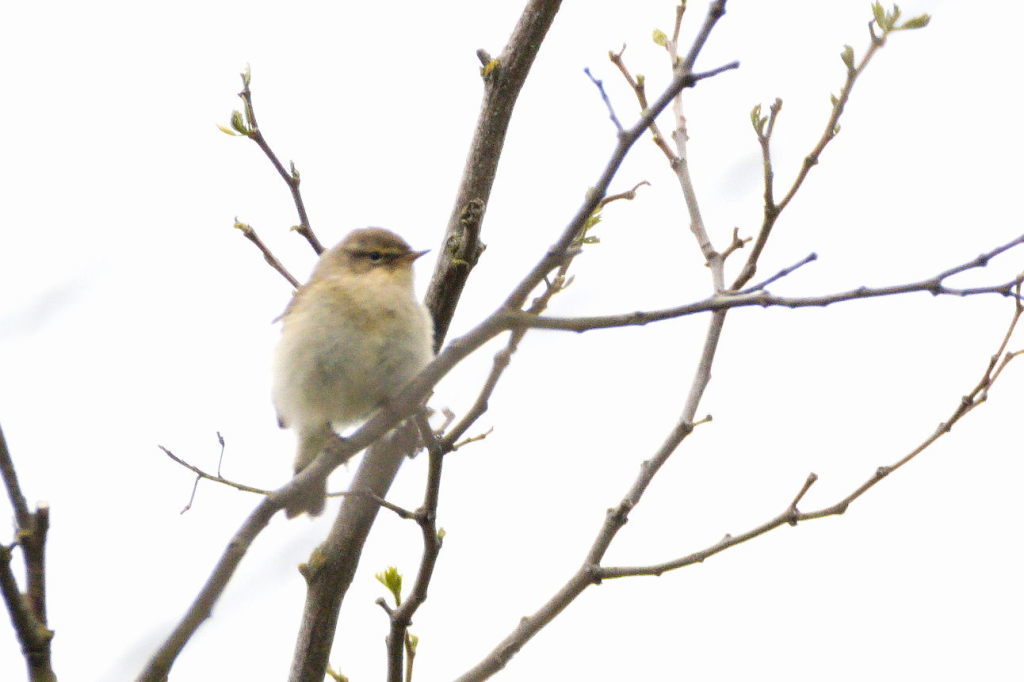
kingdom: Animalia
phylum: Chordata
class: Aves
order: Passeriformes
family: Phylloscopidae
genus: Phylloscopus
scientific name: Phylloscopus collybita
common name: Common chiffchaff
